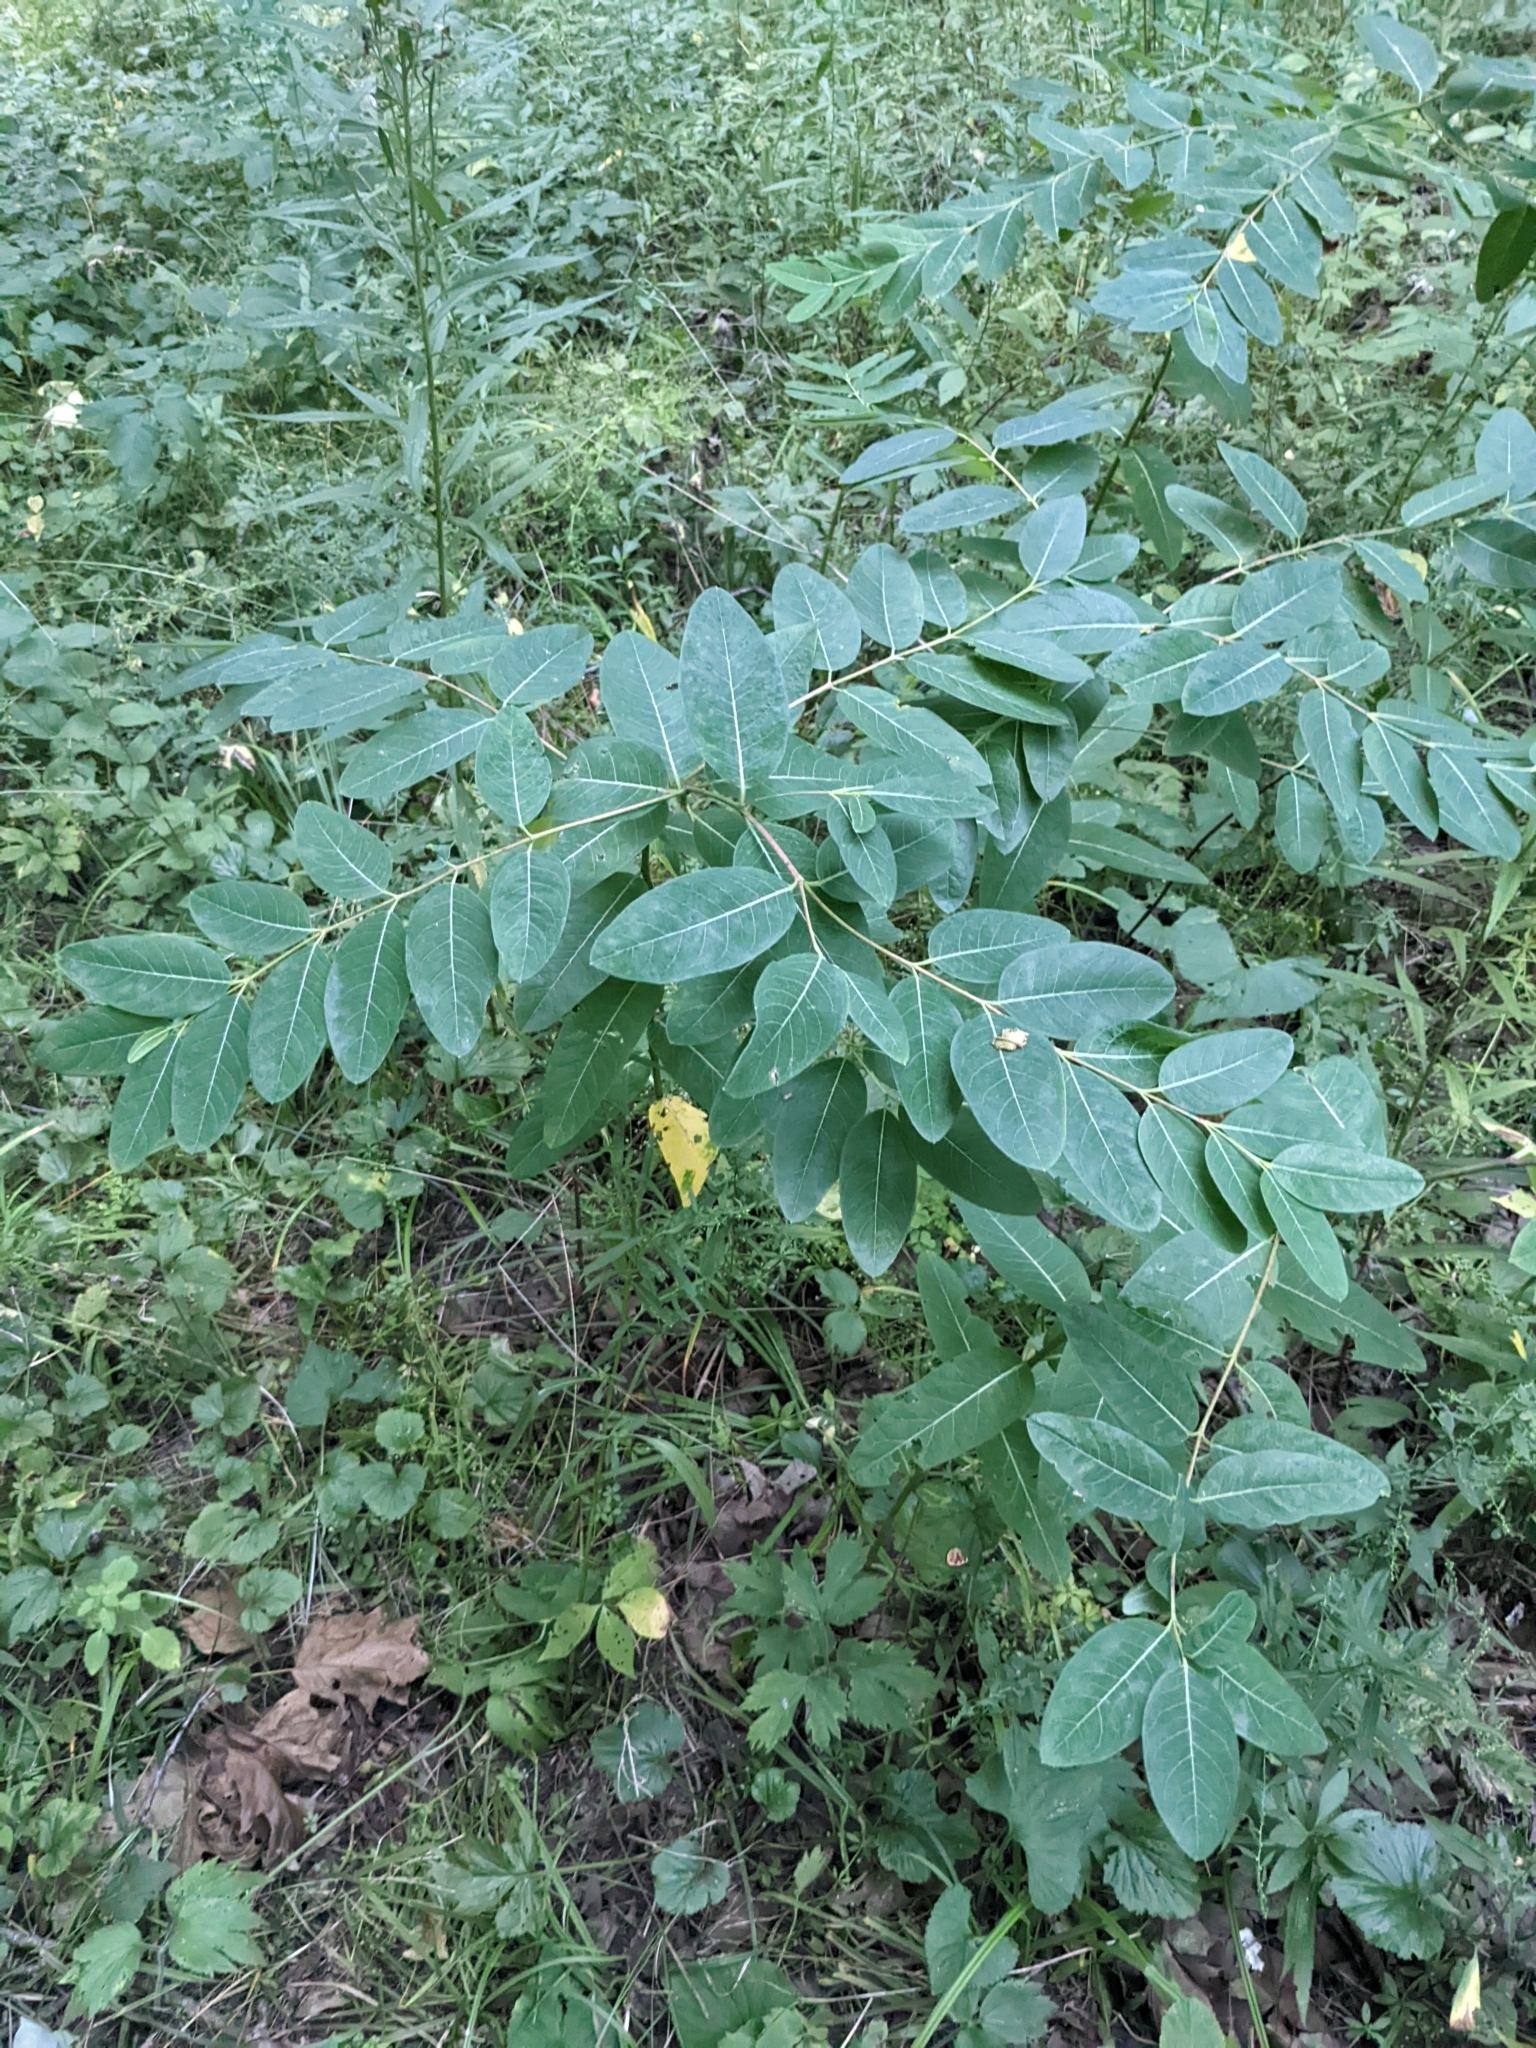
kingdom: Plantae
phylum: Tracheophyta
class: Magnoliopsida
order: Gentianales
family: Apocynaceae
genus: Apocynum
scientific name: Apocynum androsaemifolium
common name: Spreading dogbane
